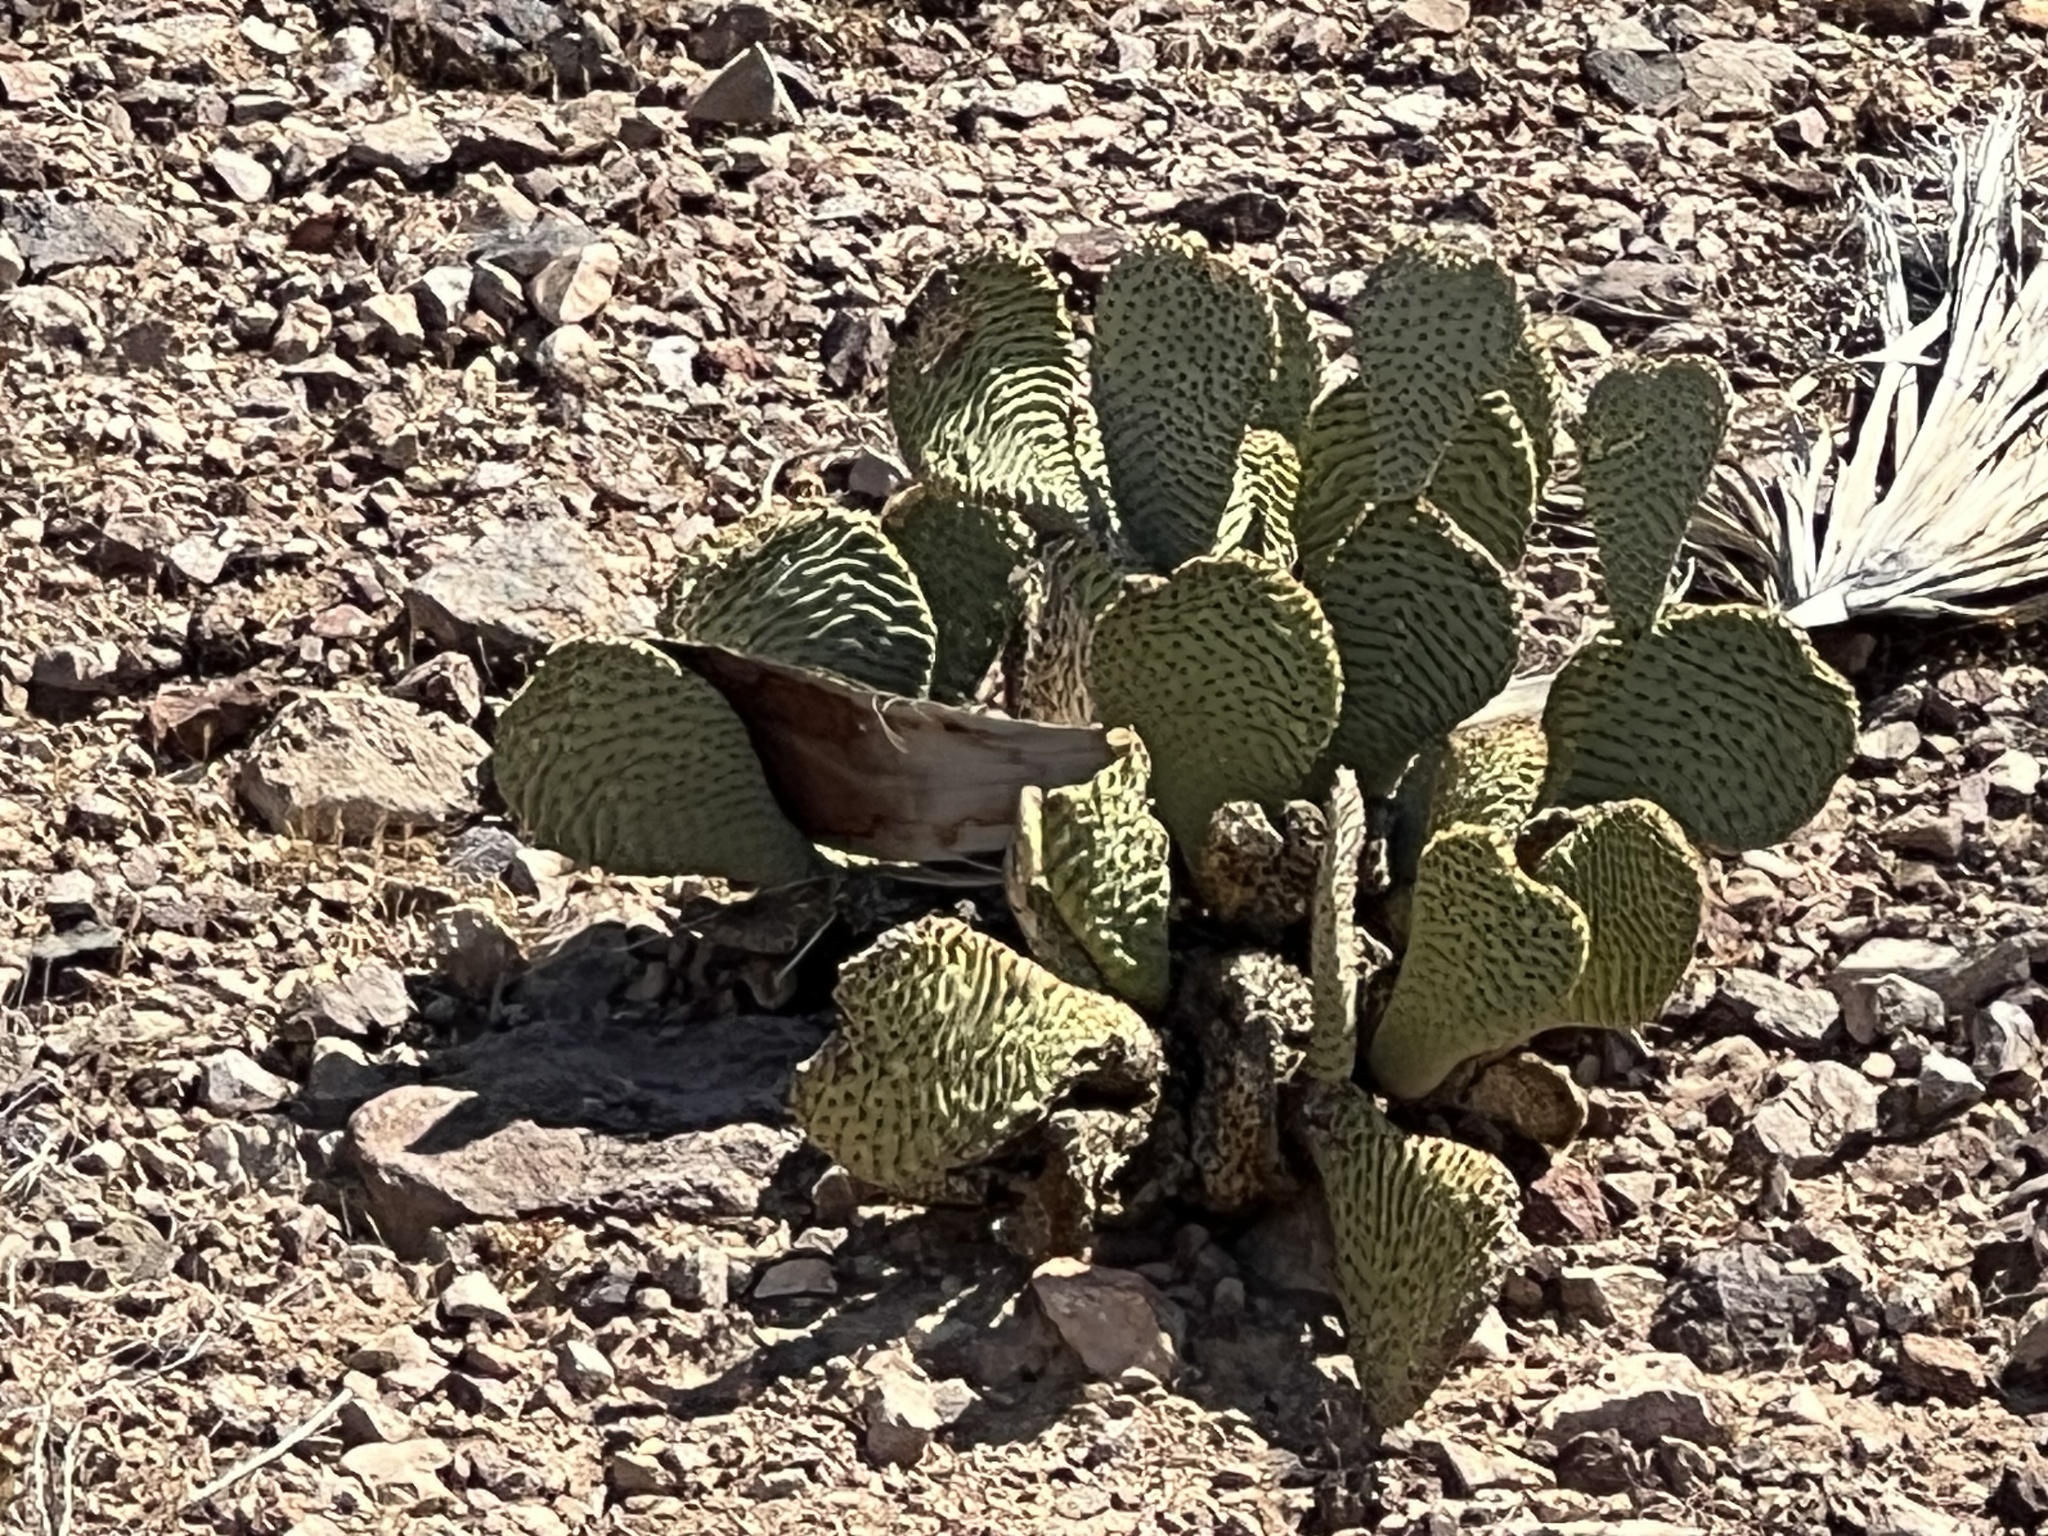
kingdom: Plantae
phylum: Tracheophyta
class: Magnoliopsida
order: Caryophyllales
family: Cactaceae
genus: Opuntia
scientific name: Opuntia basilaris
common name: Beavertail prickly-pear
